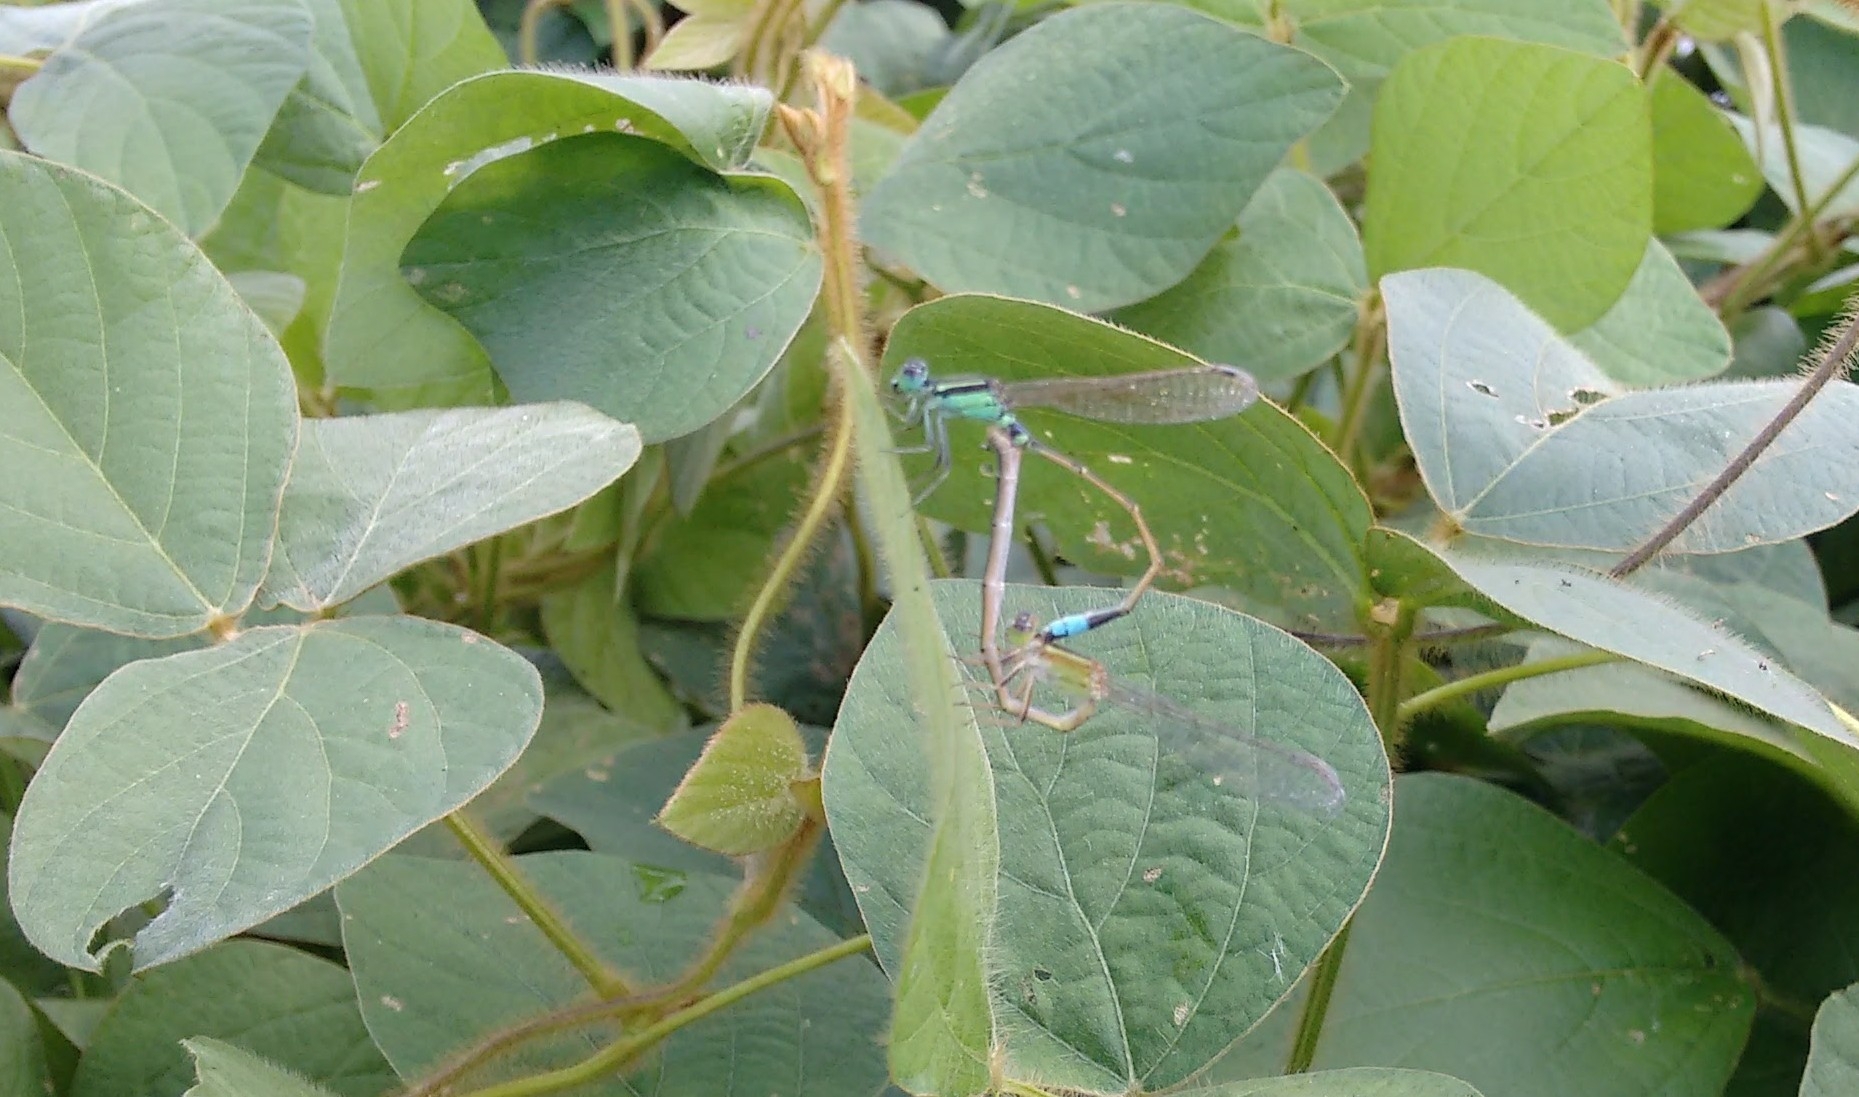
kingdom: Animalia
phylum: Arthropoda
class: Insecta
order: Odonata
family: Coenagrionidae
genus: Ischnura
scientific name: Ischnura senegalensis
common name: Tropical bluetail
